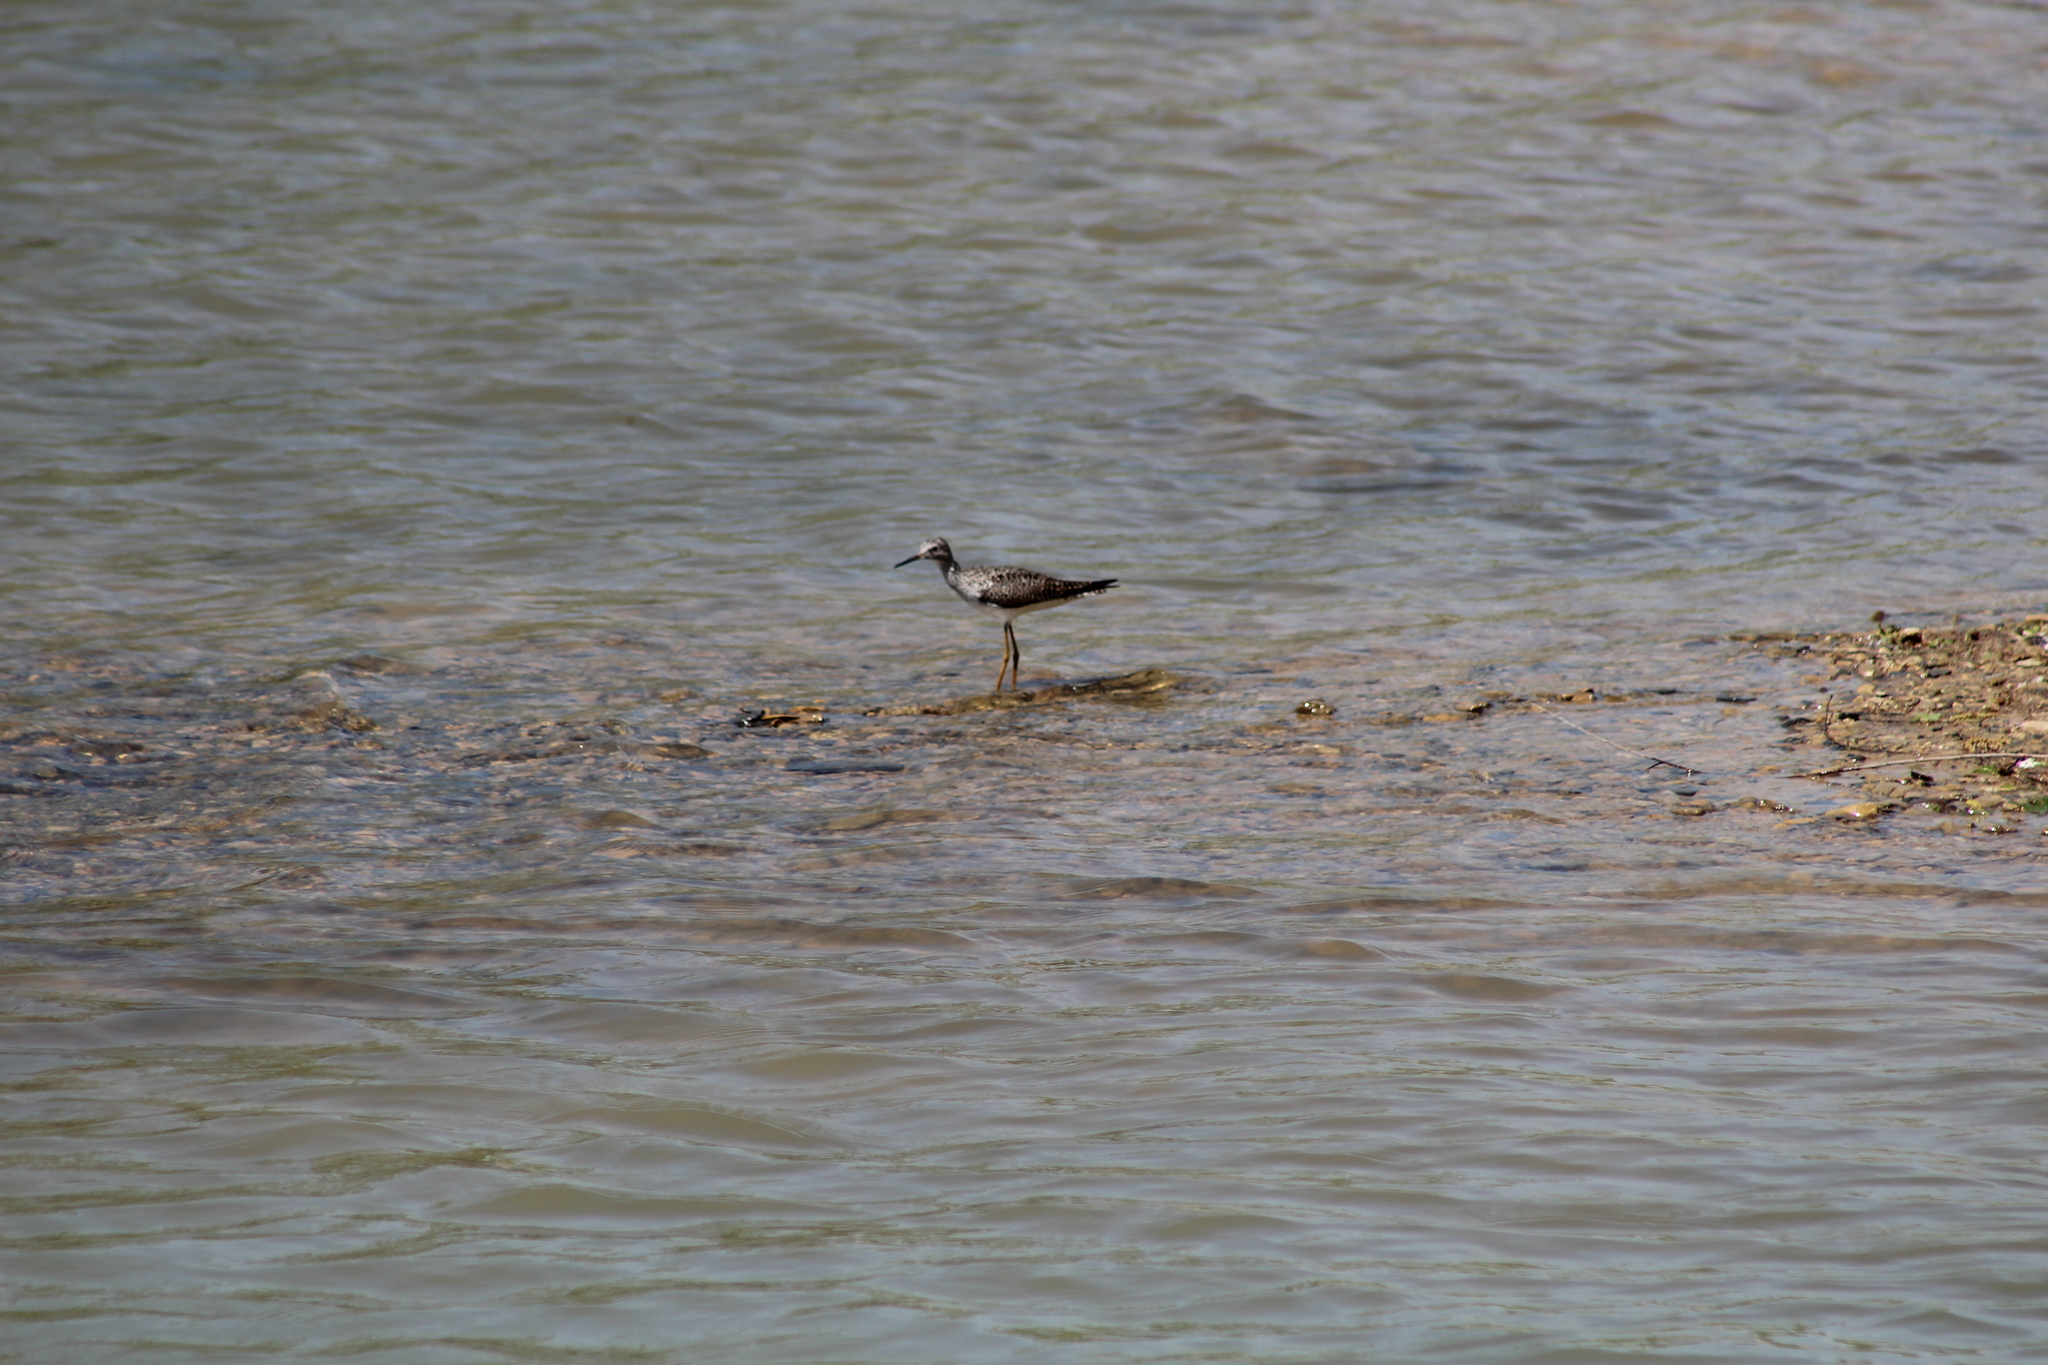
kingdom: Animalia
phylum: Chordata
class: Aves
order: Charadriiformes
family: Scolopacidae
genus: Tringa
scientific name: Tringa melanoleuca
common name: Greater yellowlegs
